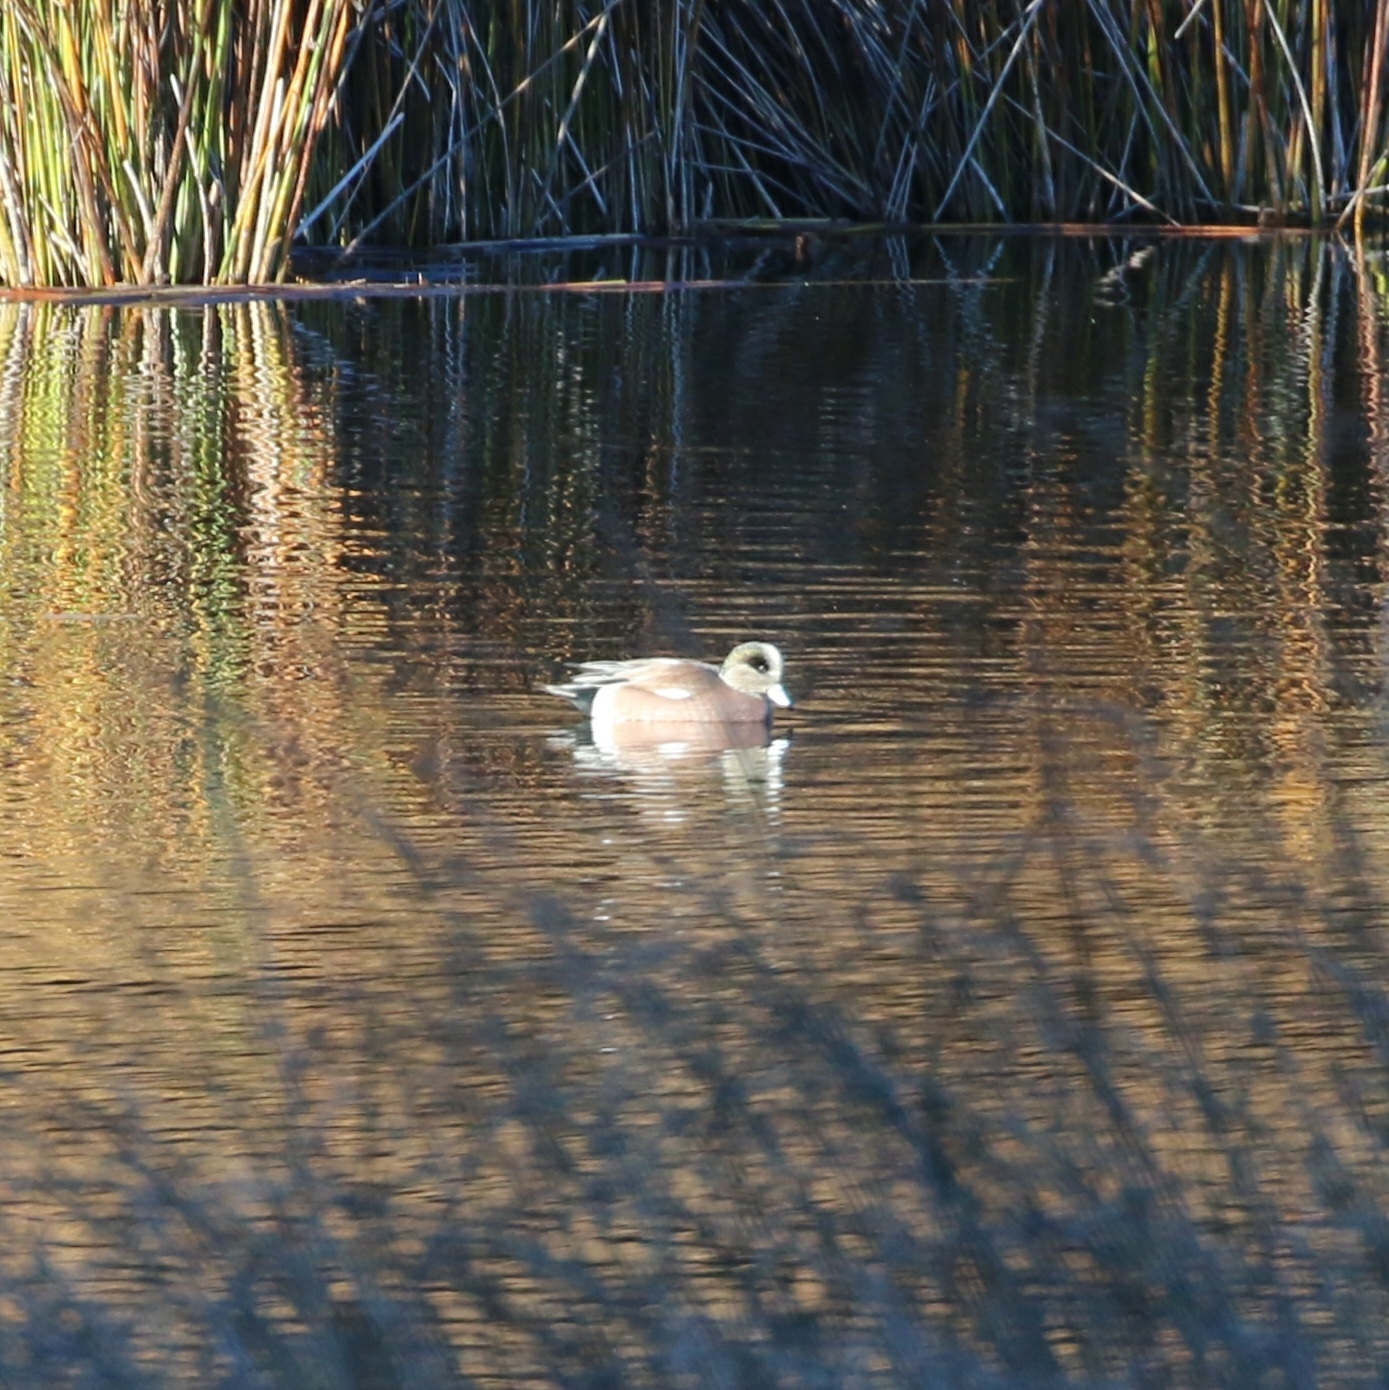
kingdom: Animalia
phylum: Chordata
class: Aves
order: Anseriformes
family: Anatidae
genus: Mareca
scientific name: Mareca americana
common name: American wigeon
